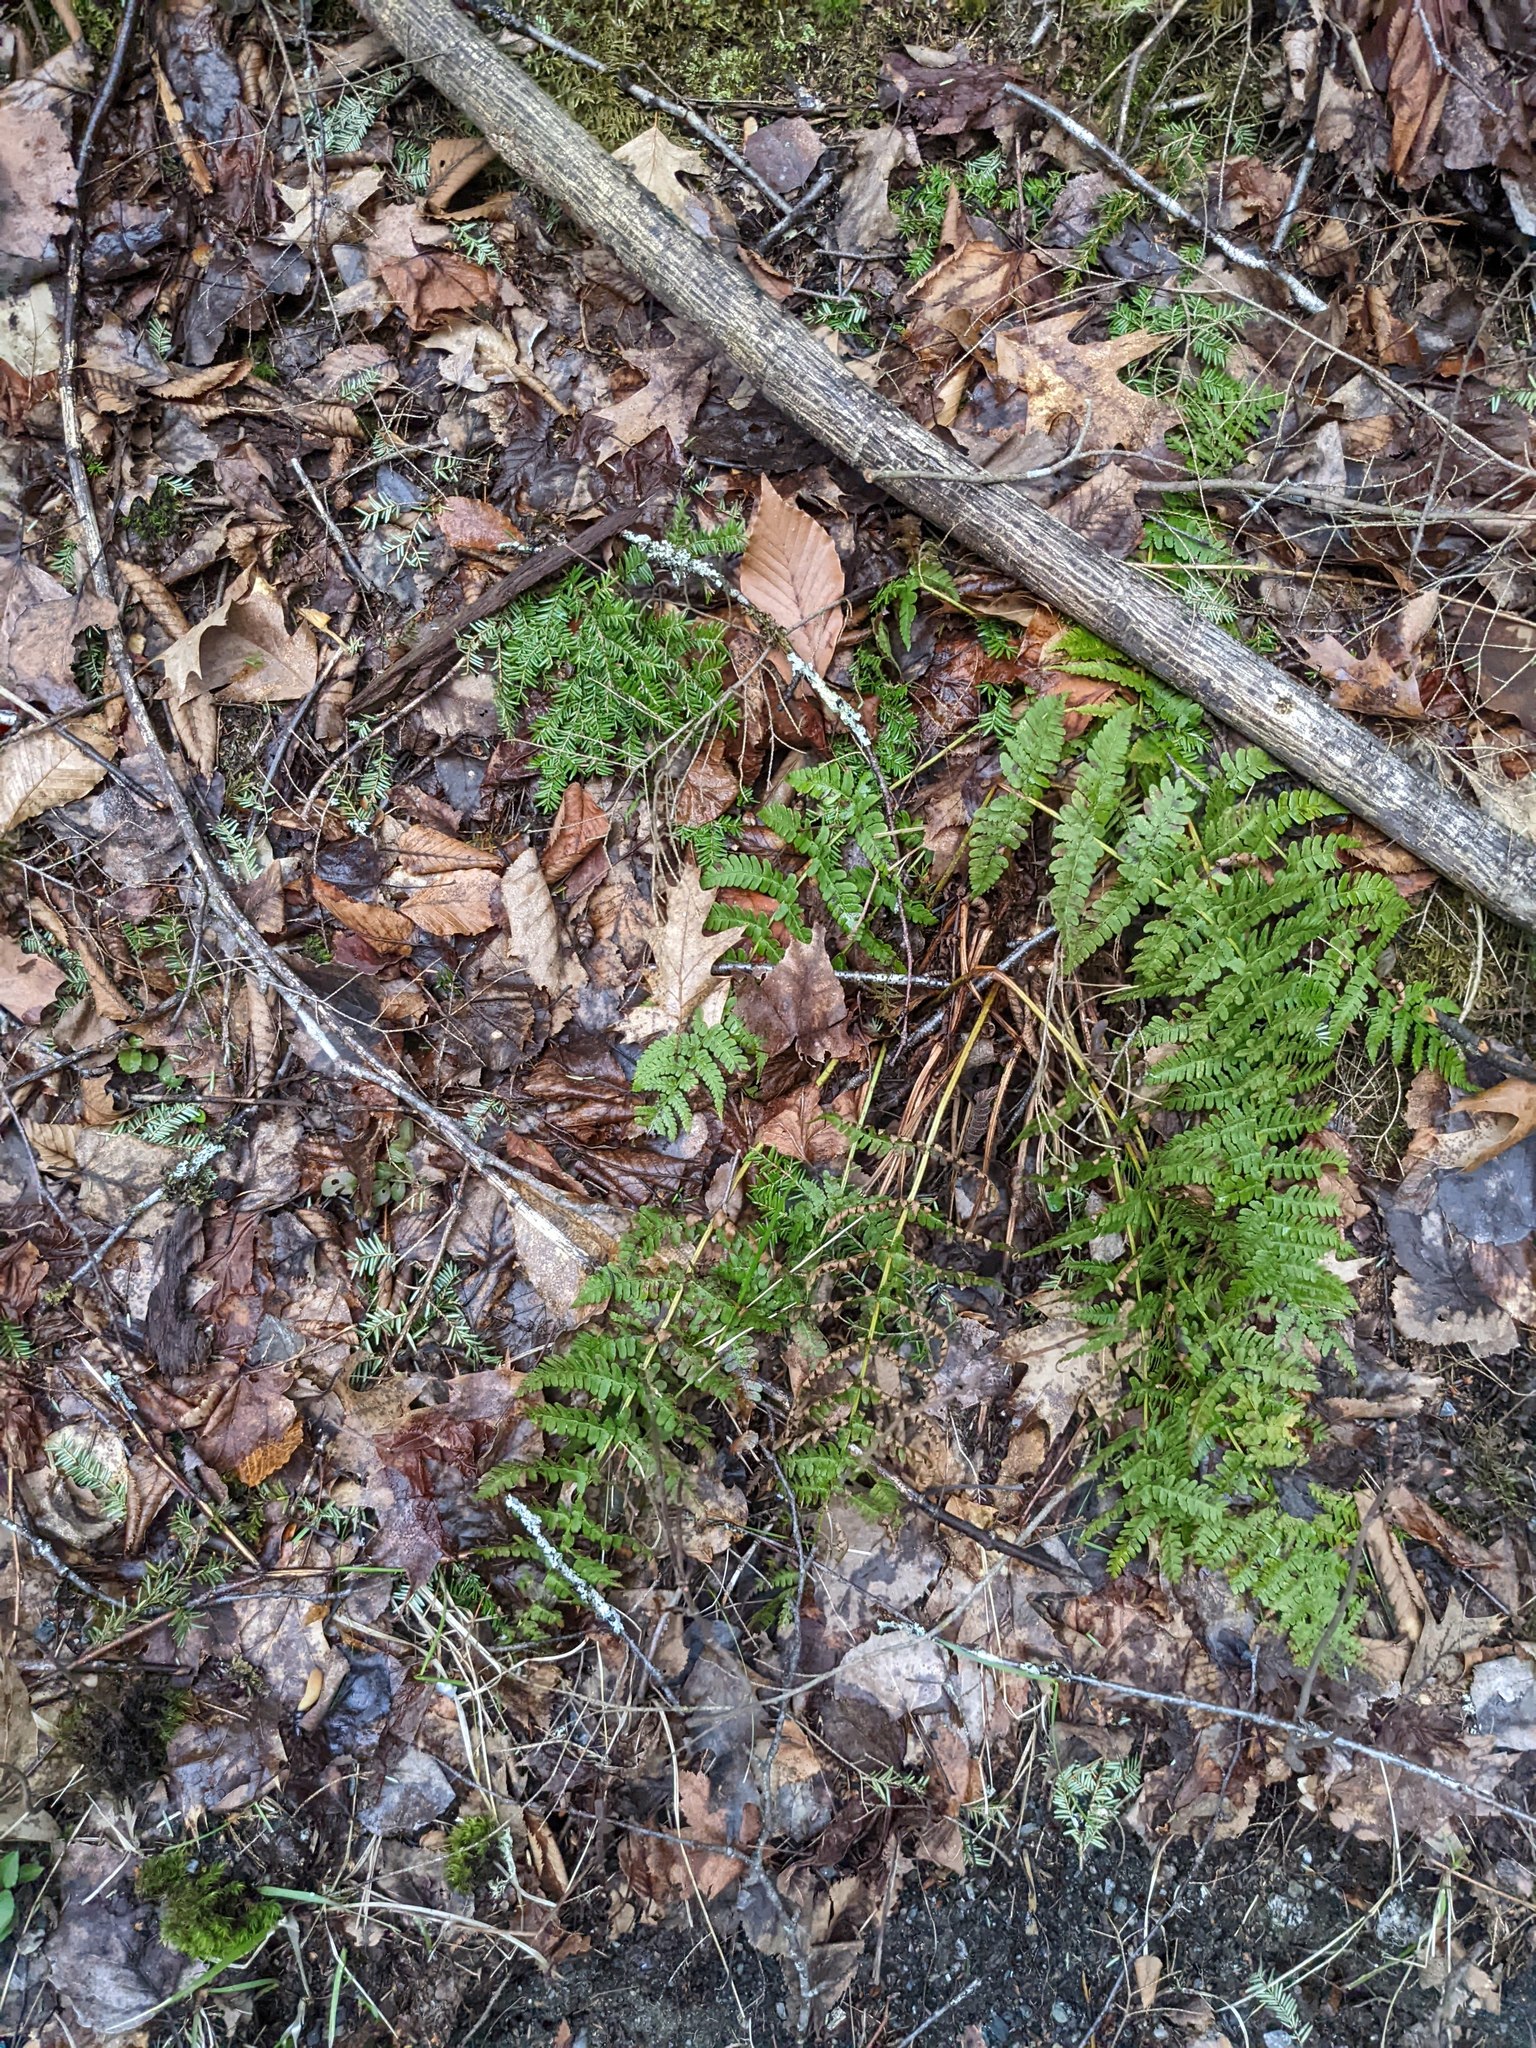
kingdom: Plantae
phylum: Tracheophyta
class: Polypodiopsida
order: Polypodiales
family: Dryopteridaceae
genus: Dryopteris
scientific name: Dryopteris intermedia
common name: Evergreen wood fern
